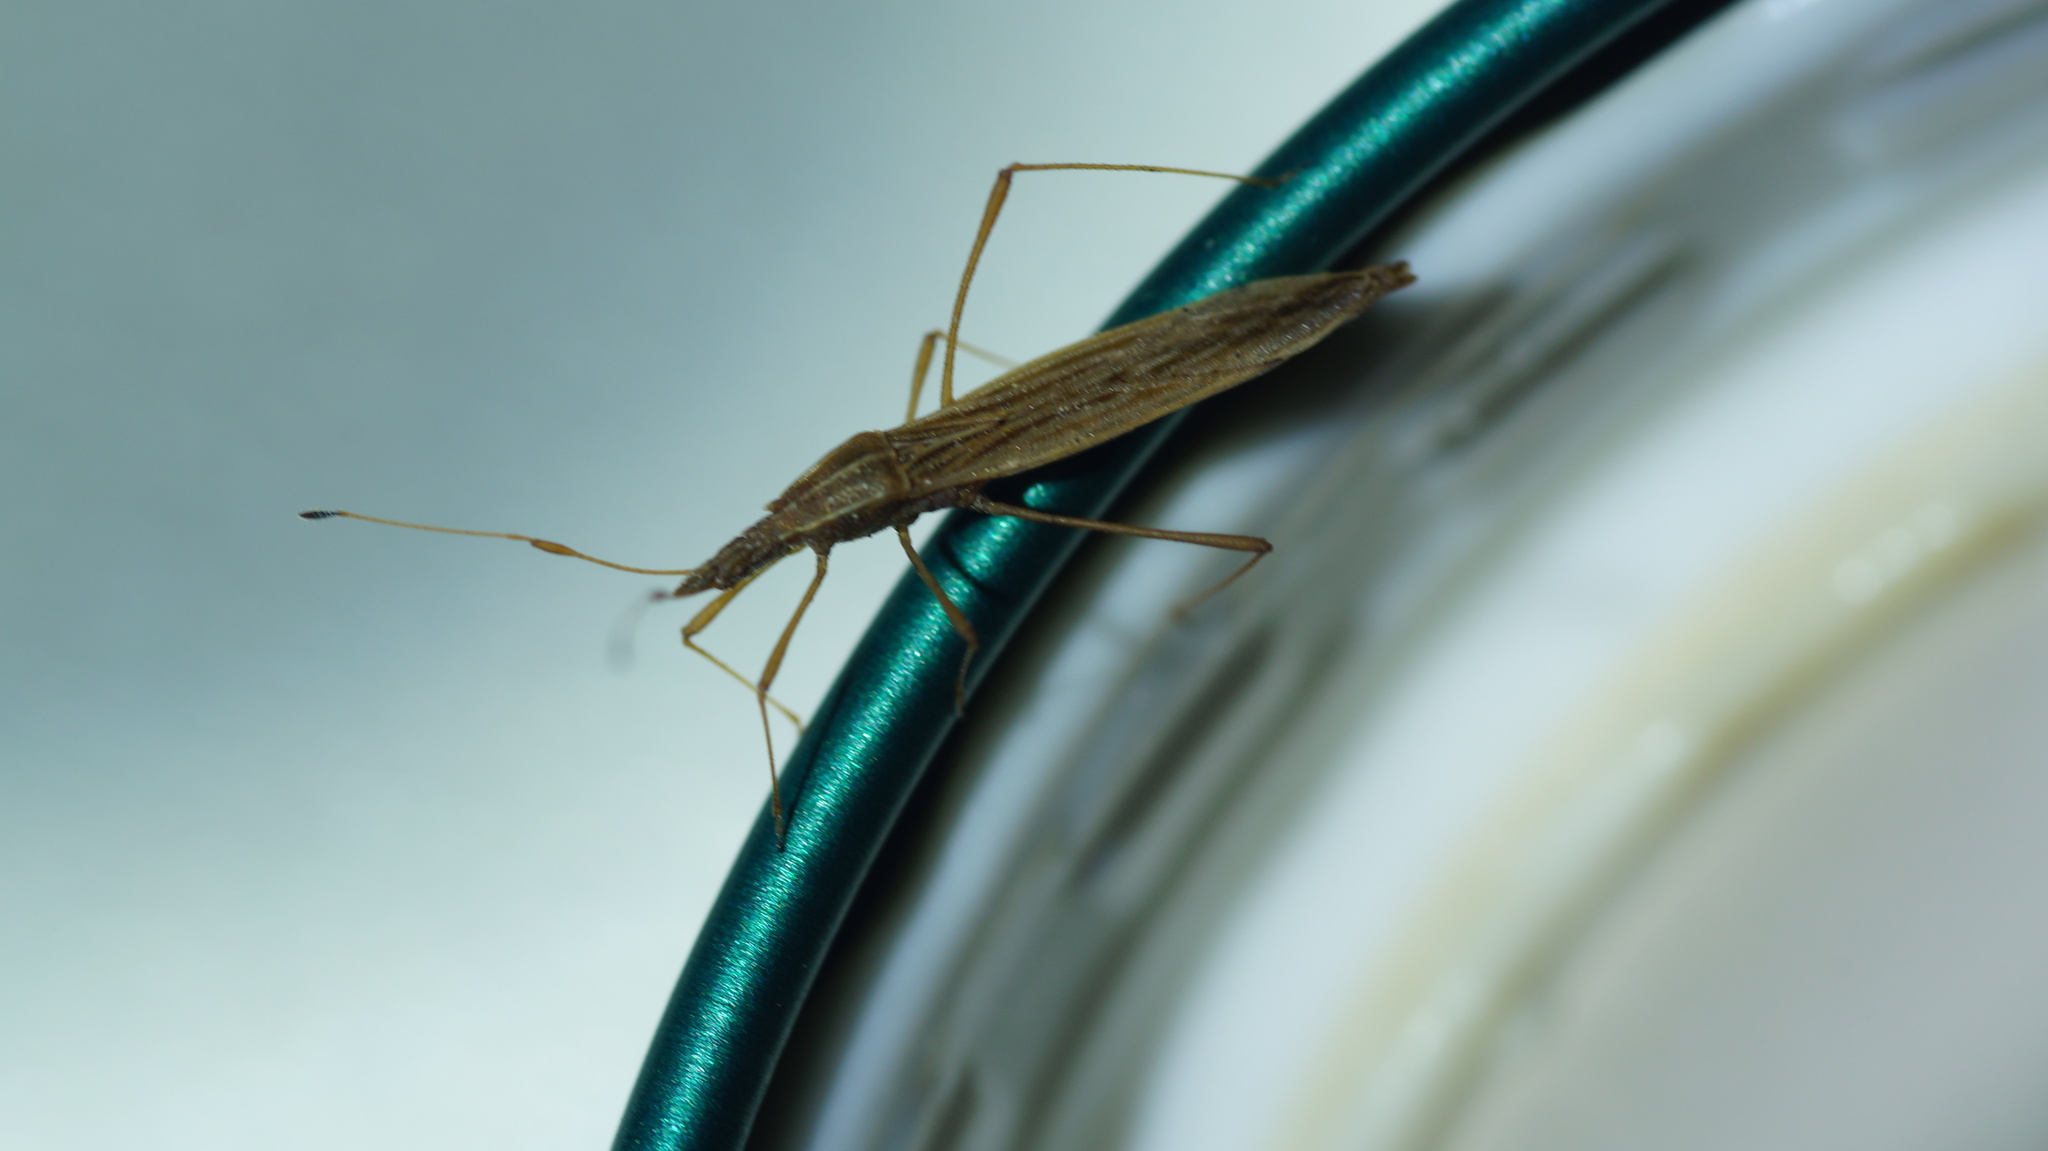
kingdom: Animalia
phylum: Arthropoda
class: Insecta
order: Hemiptera
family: Berytidae
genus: Berytinus
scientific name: Berytinus clavipes
